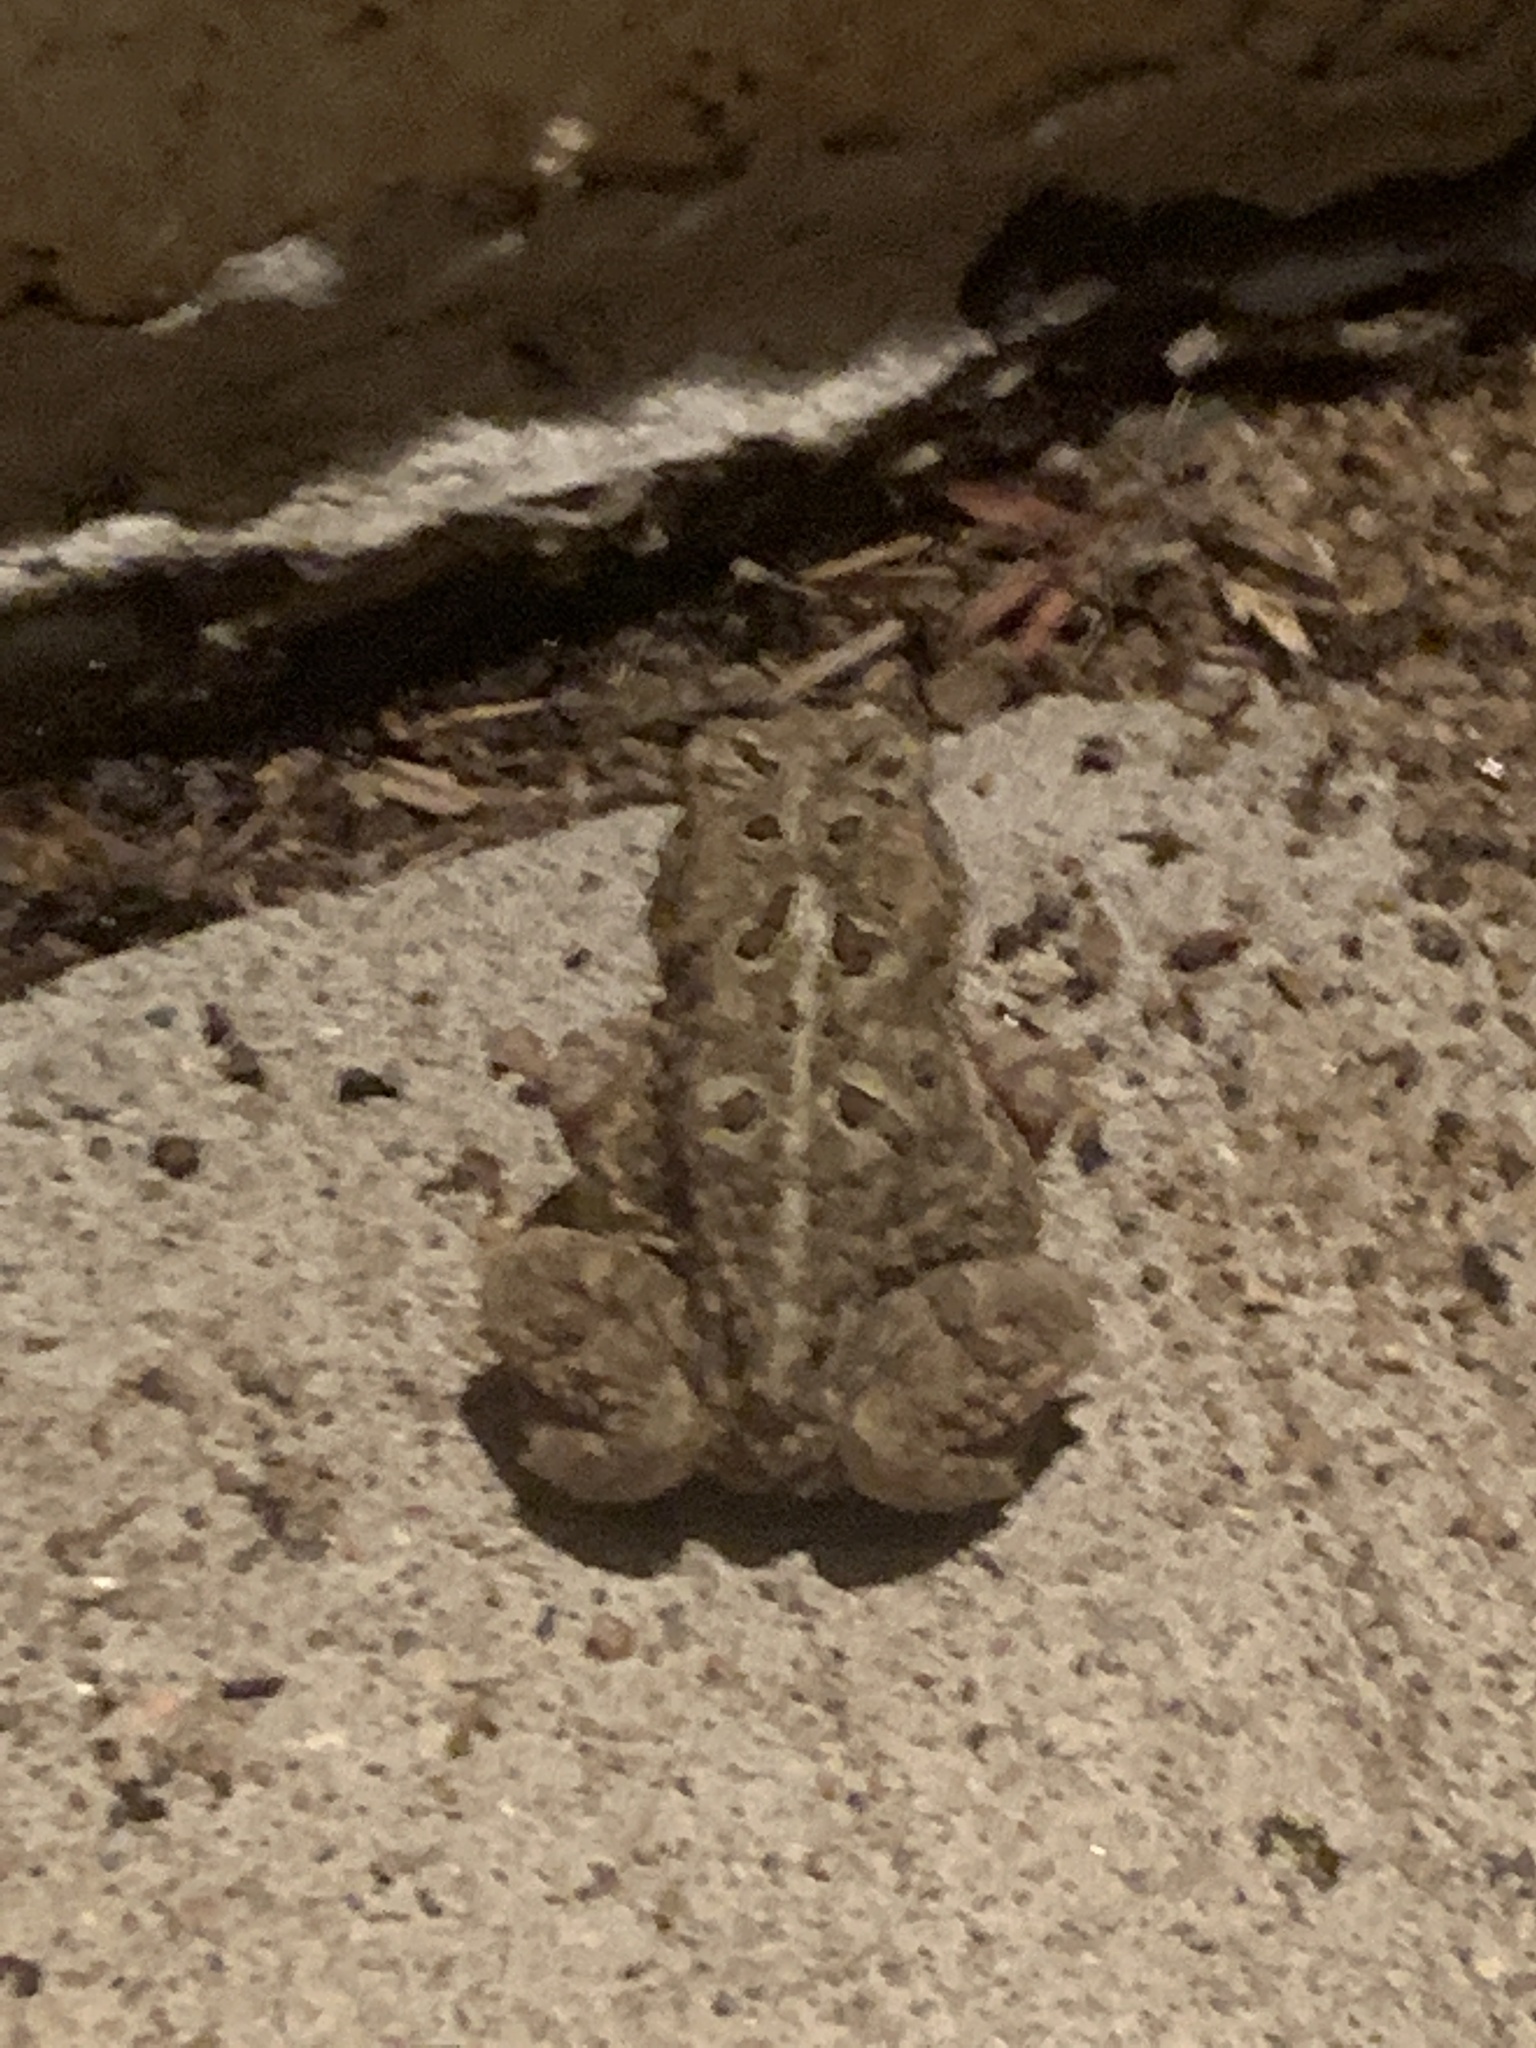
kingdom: Animalia
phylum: Chordata
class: Amphibia
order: Anura
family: Bufonidae
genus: Anaxyrus
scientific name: Anaxyrus americanus
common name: American toad
